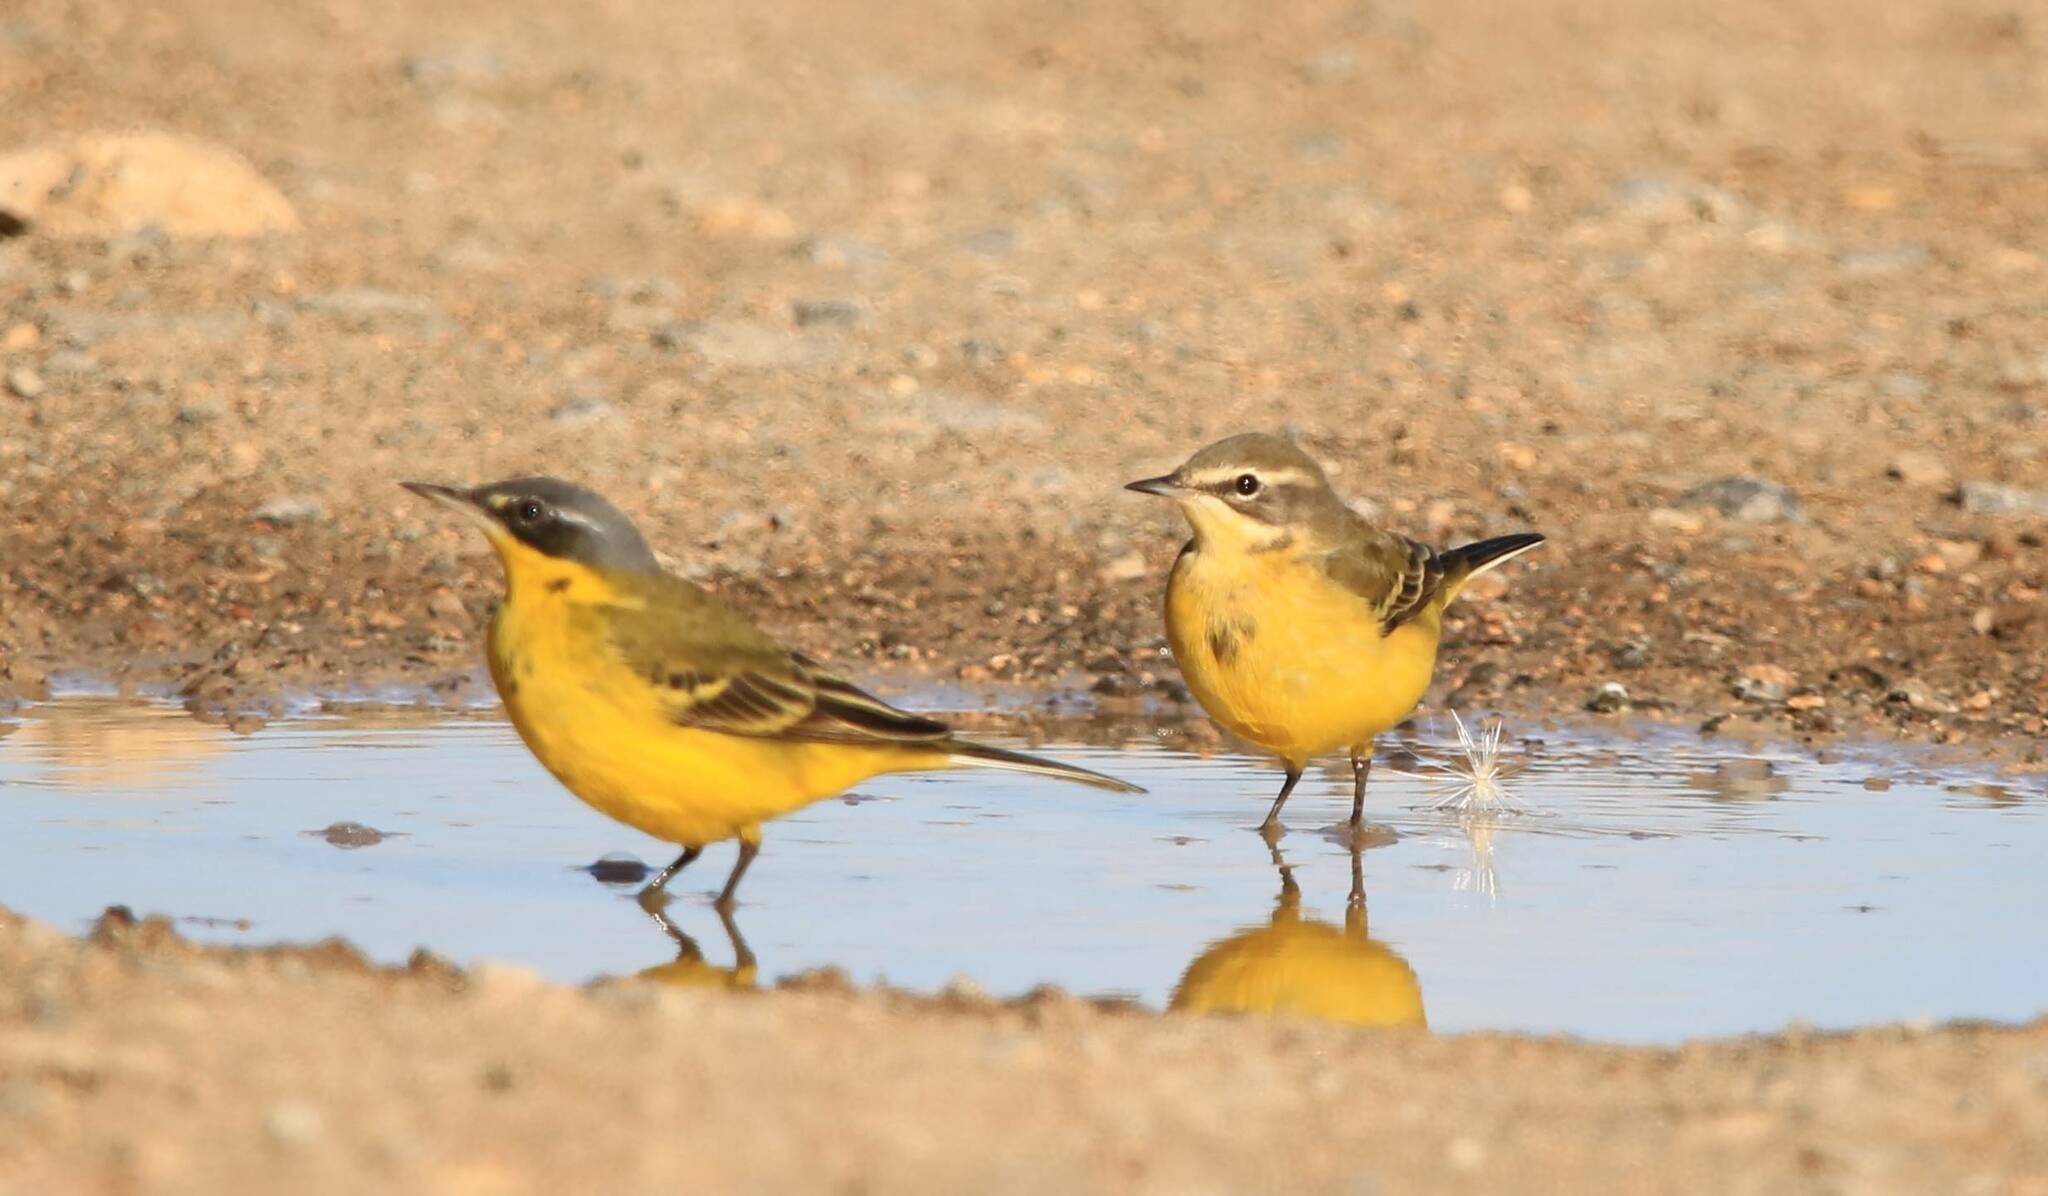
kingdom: Animalia
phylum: Chordata
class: Aves
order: Passeriformes
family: Motacillidae
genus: Motacilla
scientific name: Motacilla flava
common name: Western yellow wagtail
